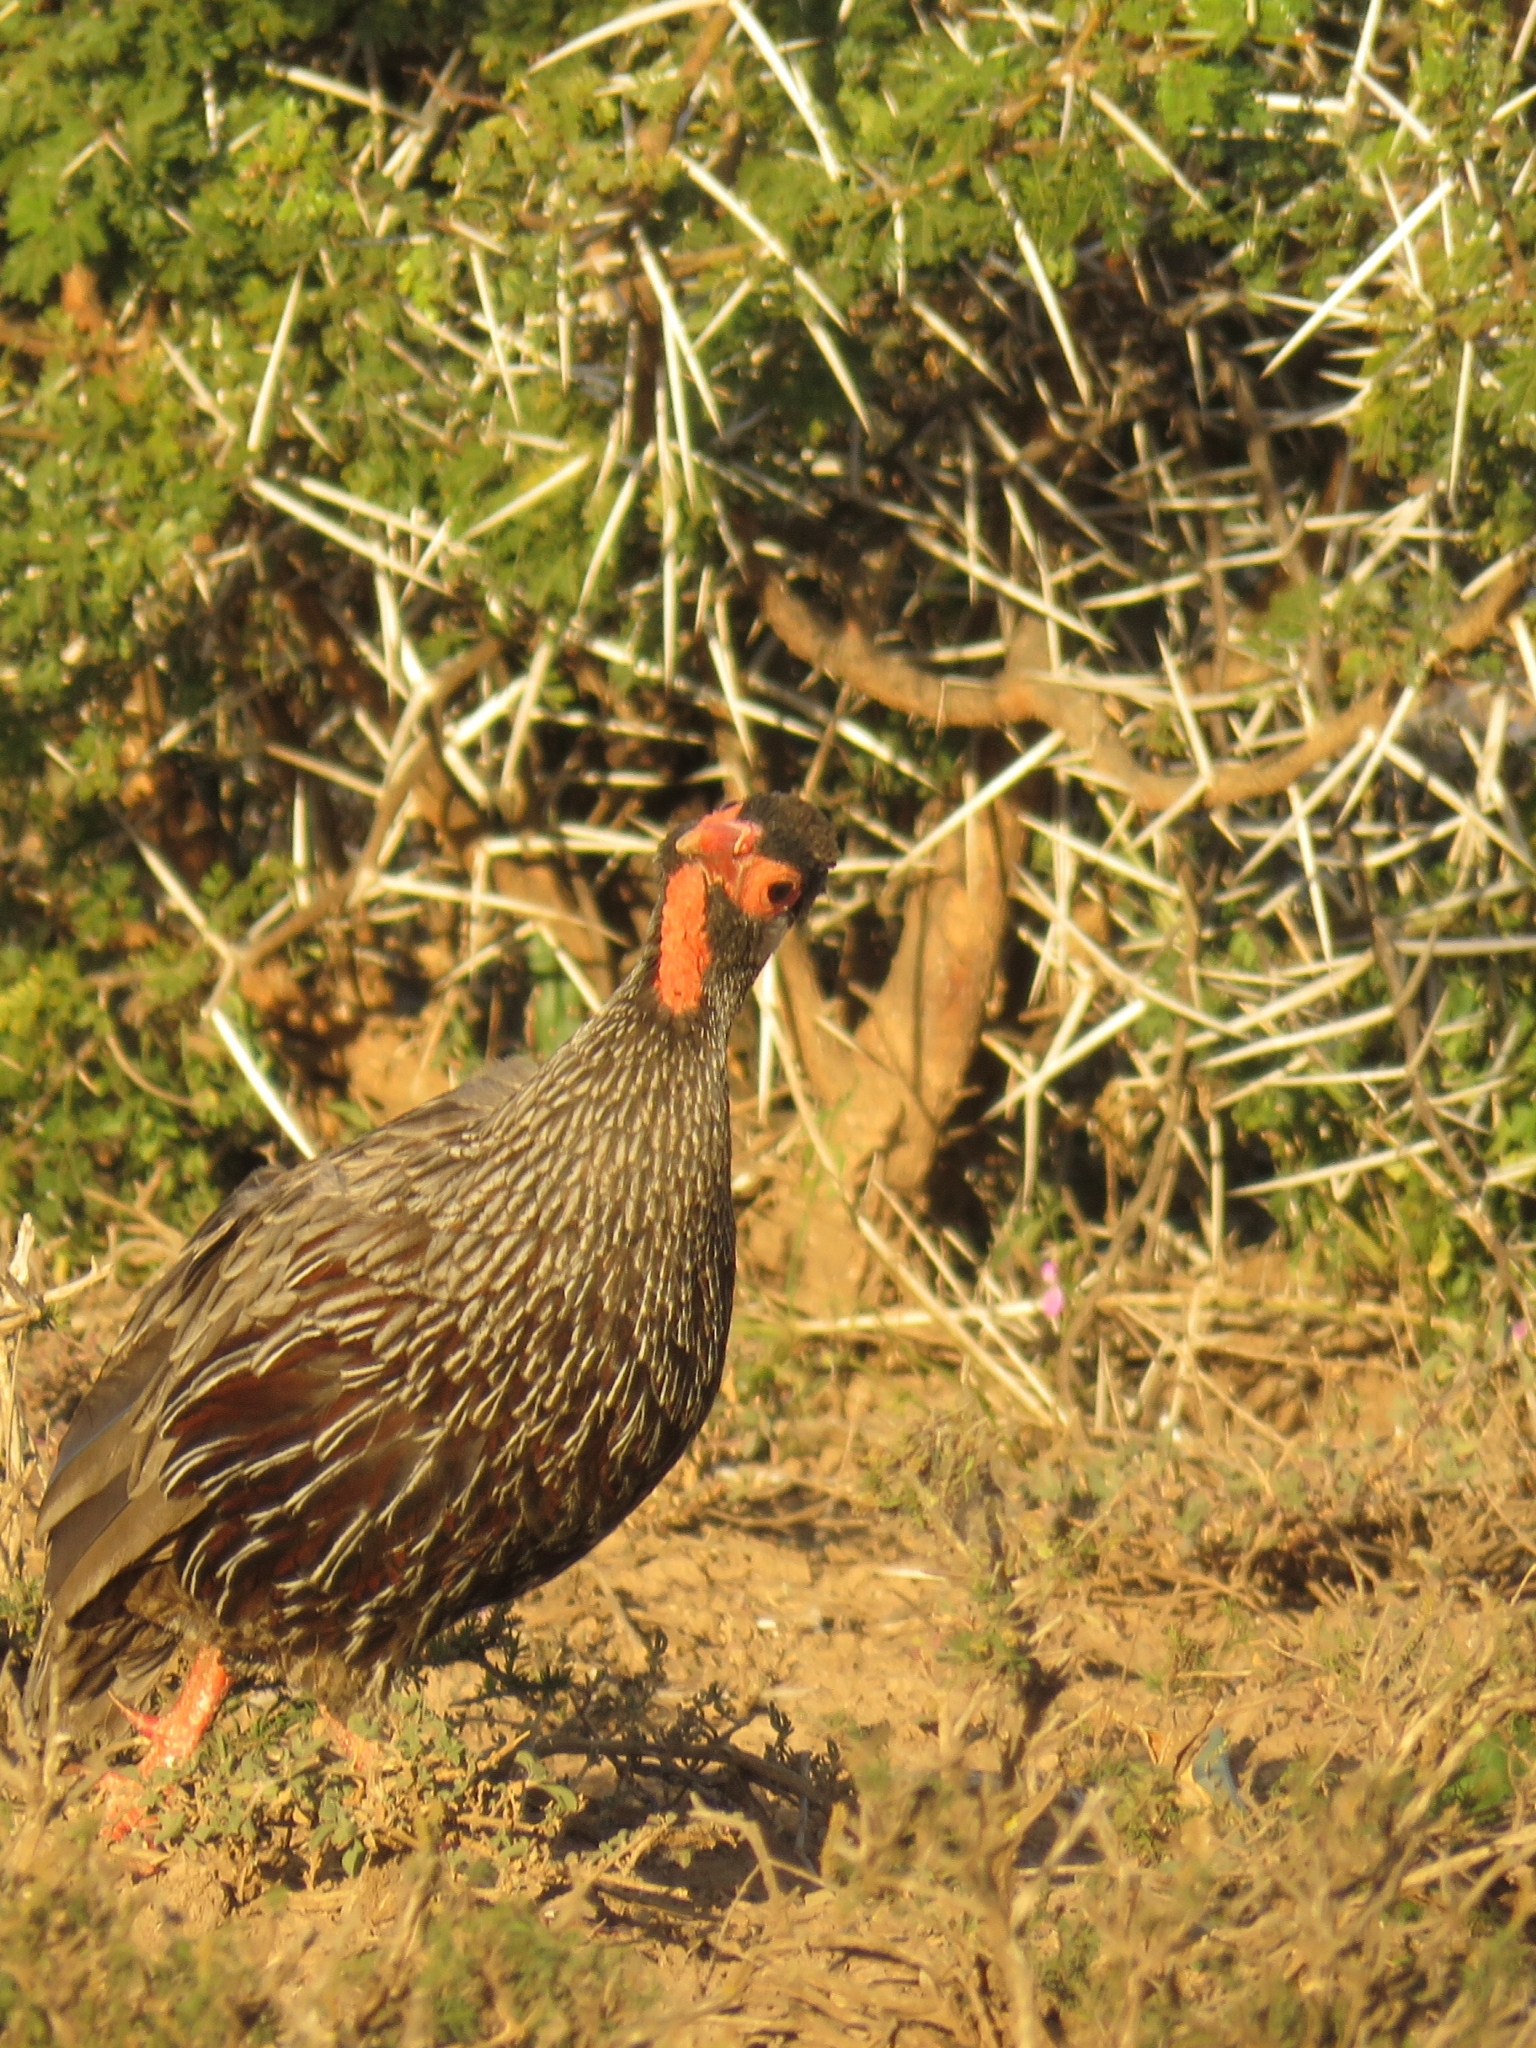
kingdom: Animalia
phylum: Chordata
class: Aves
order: Galliformes
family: Phasianidae
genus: Pternistis
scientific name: Pternistis afer
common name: Red-necked spurfowl
